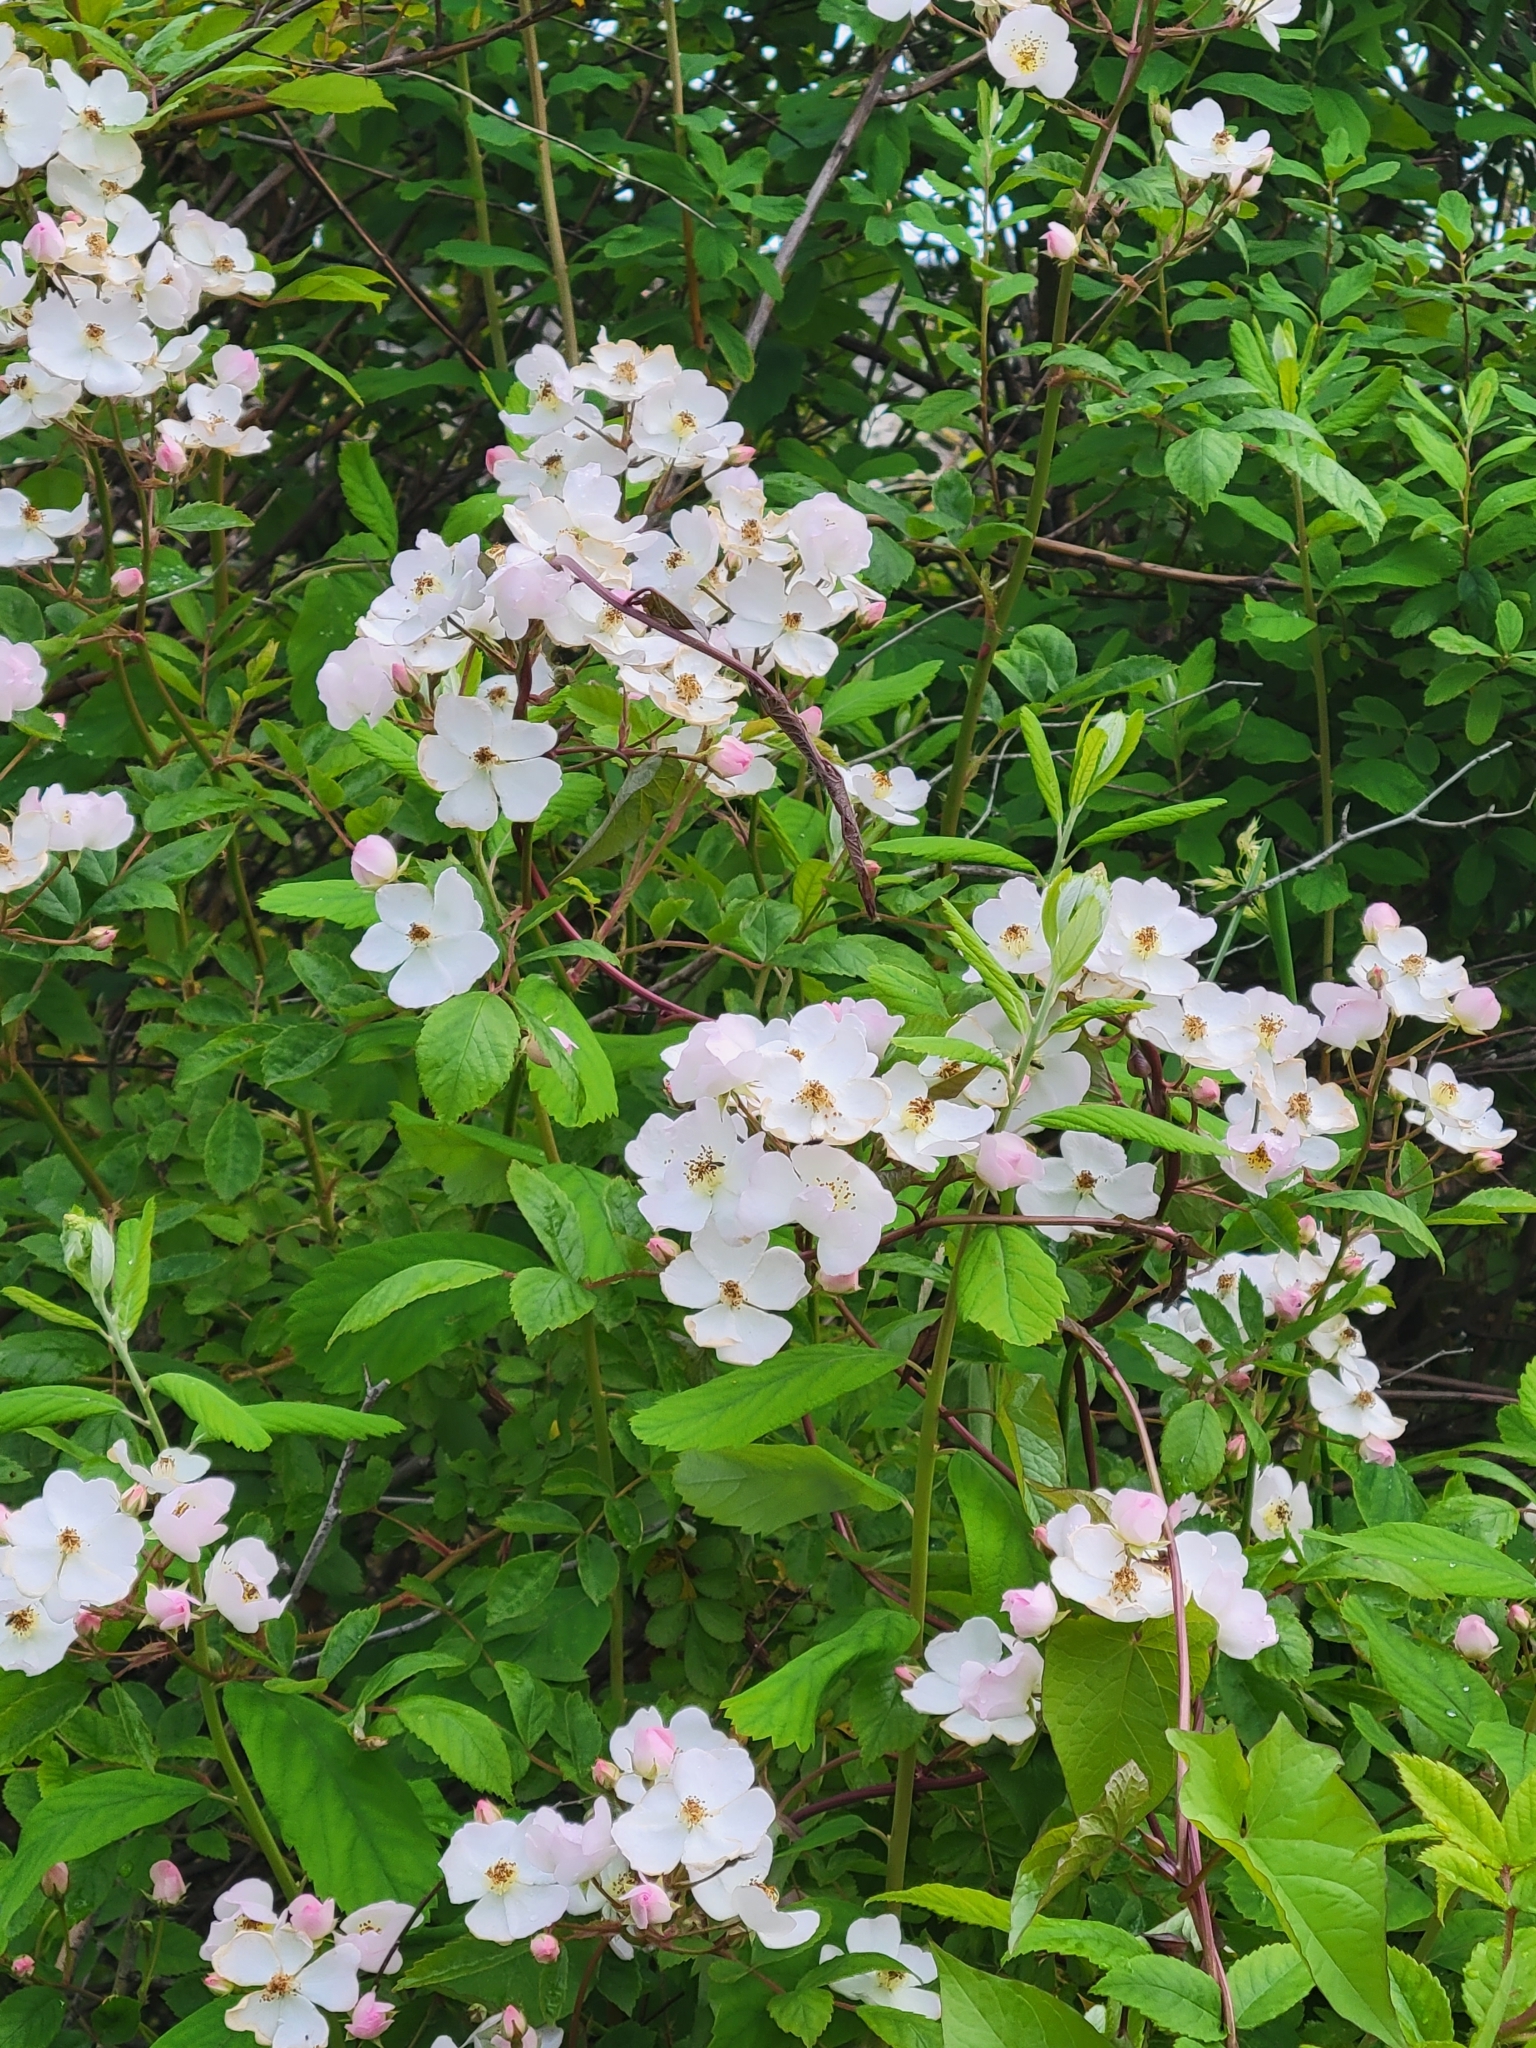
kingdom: Plantae
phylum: Tracheophyta
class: Magnoliopsida
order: Rosales
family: Rosaceae
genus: Rosa
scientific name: Rosa multiflora
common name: Multiflora rose
